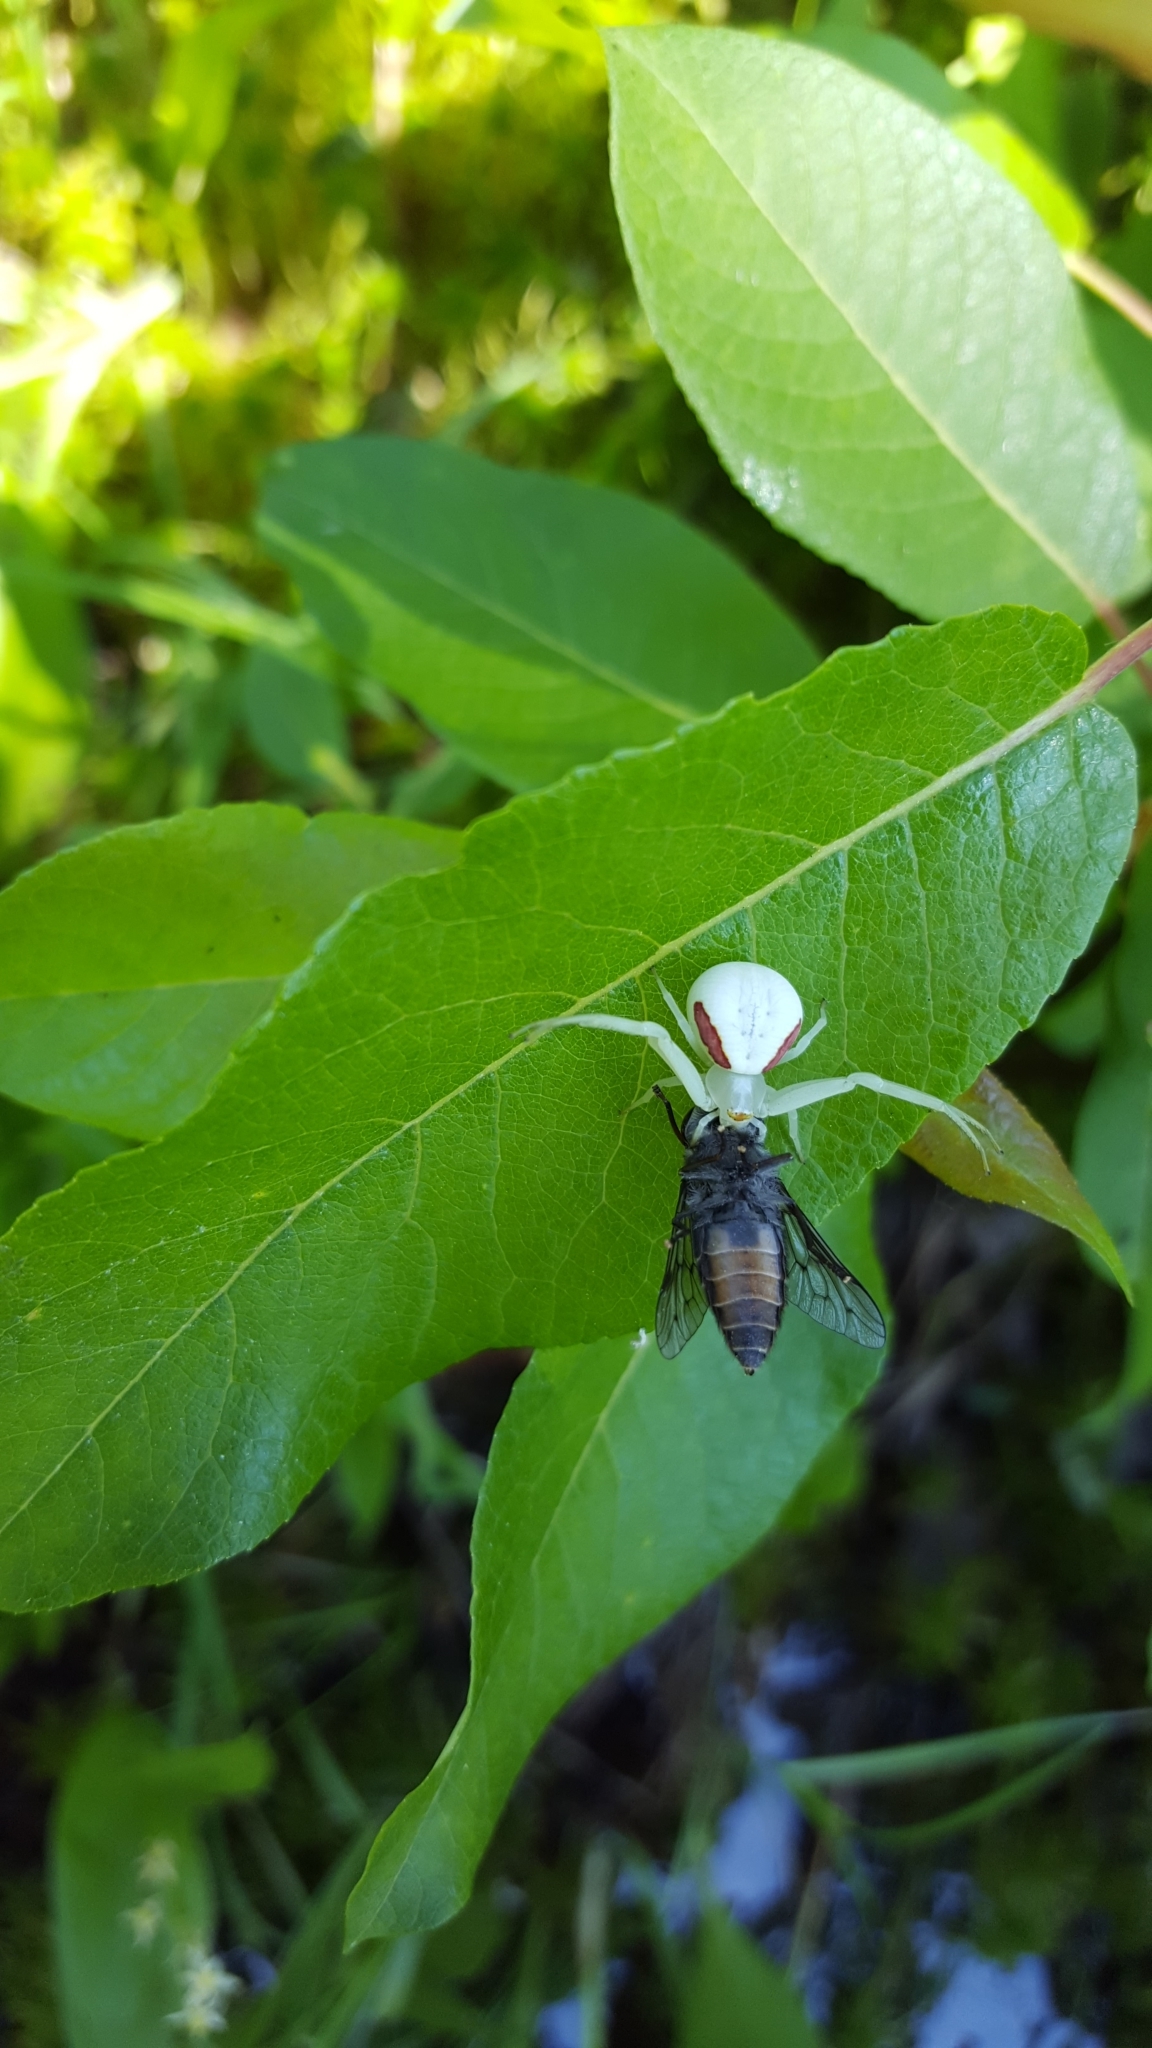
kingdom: Animalia
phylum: Arthropoda
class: Arachnida
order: Araneae
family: Thomisidae
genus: Misumena
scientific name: Misumena vatia
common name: Goldenrod crab spider
